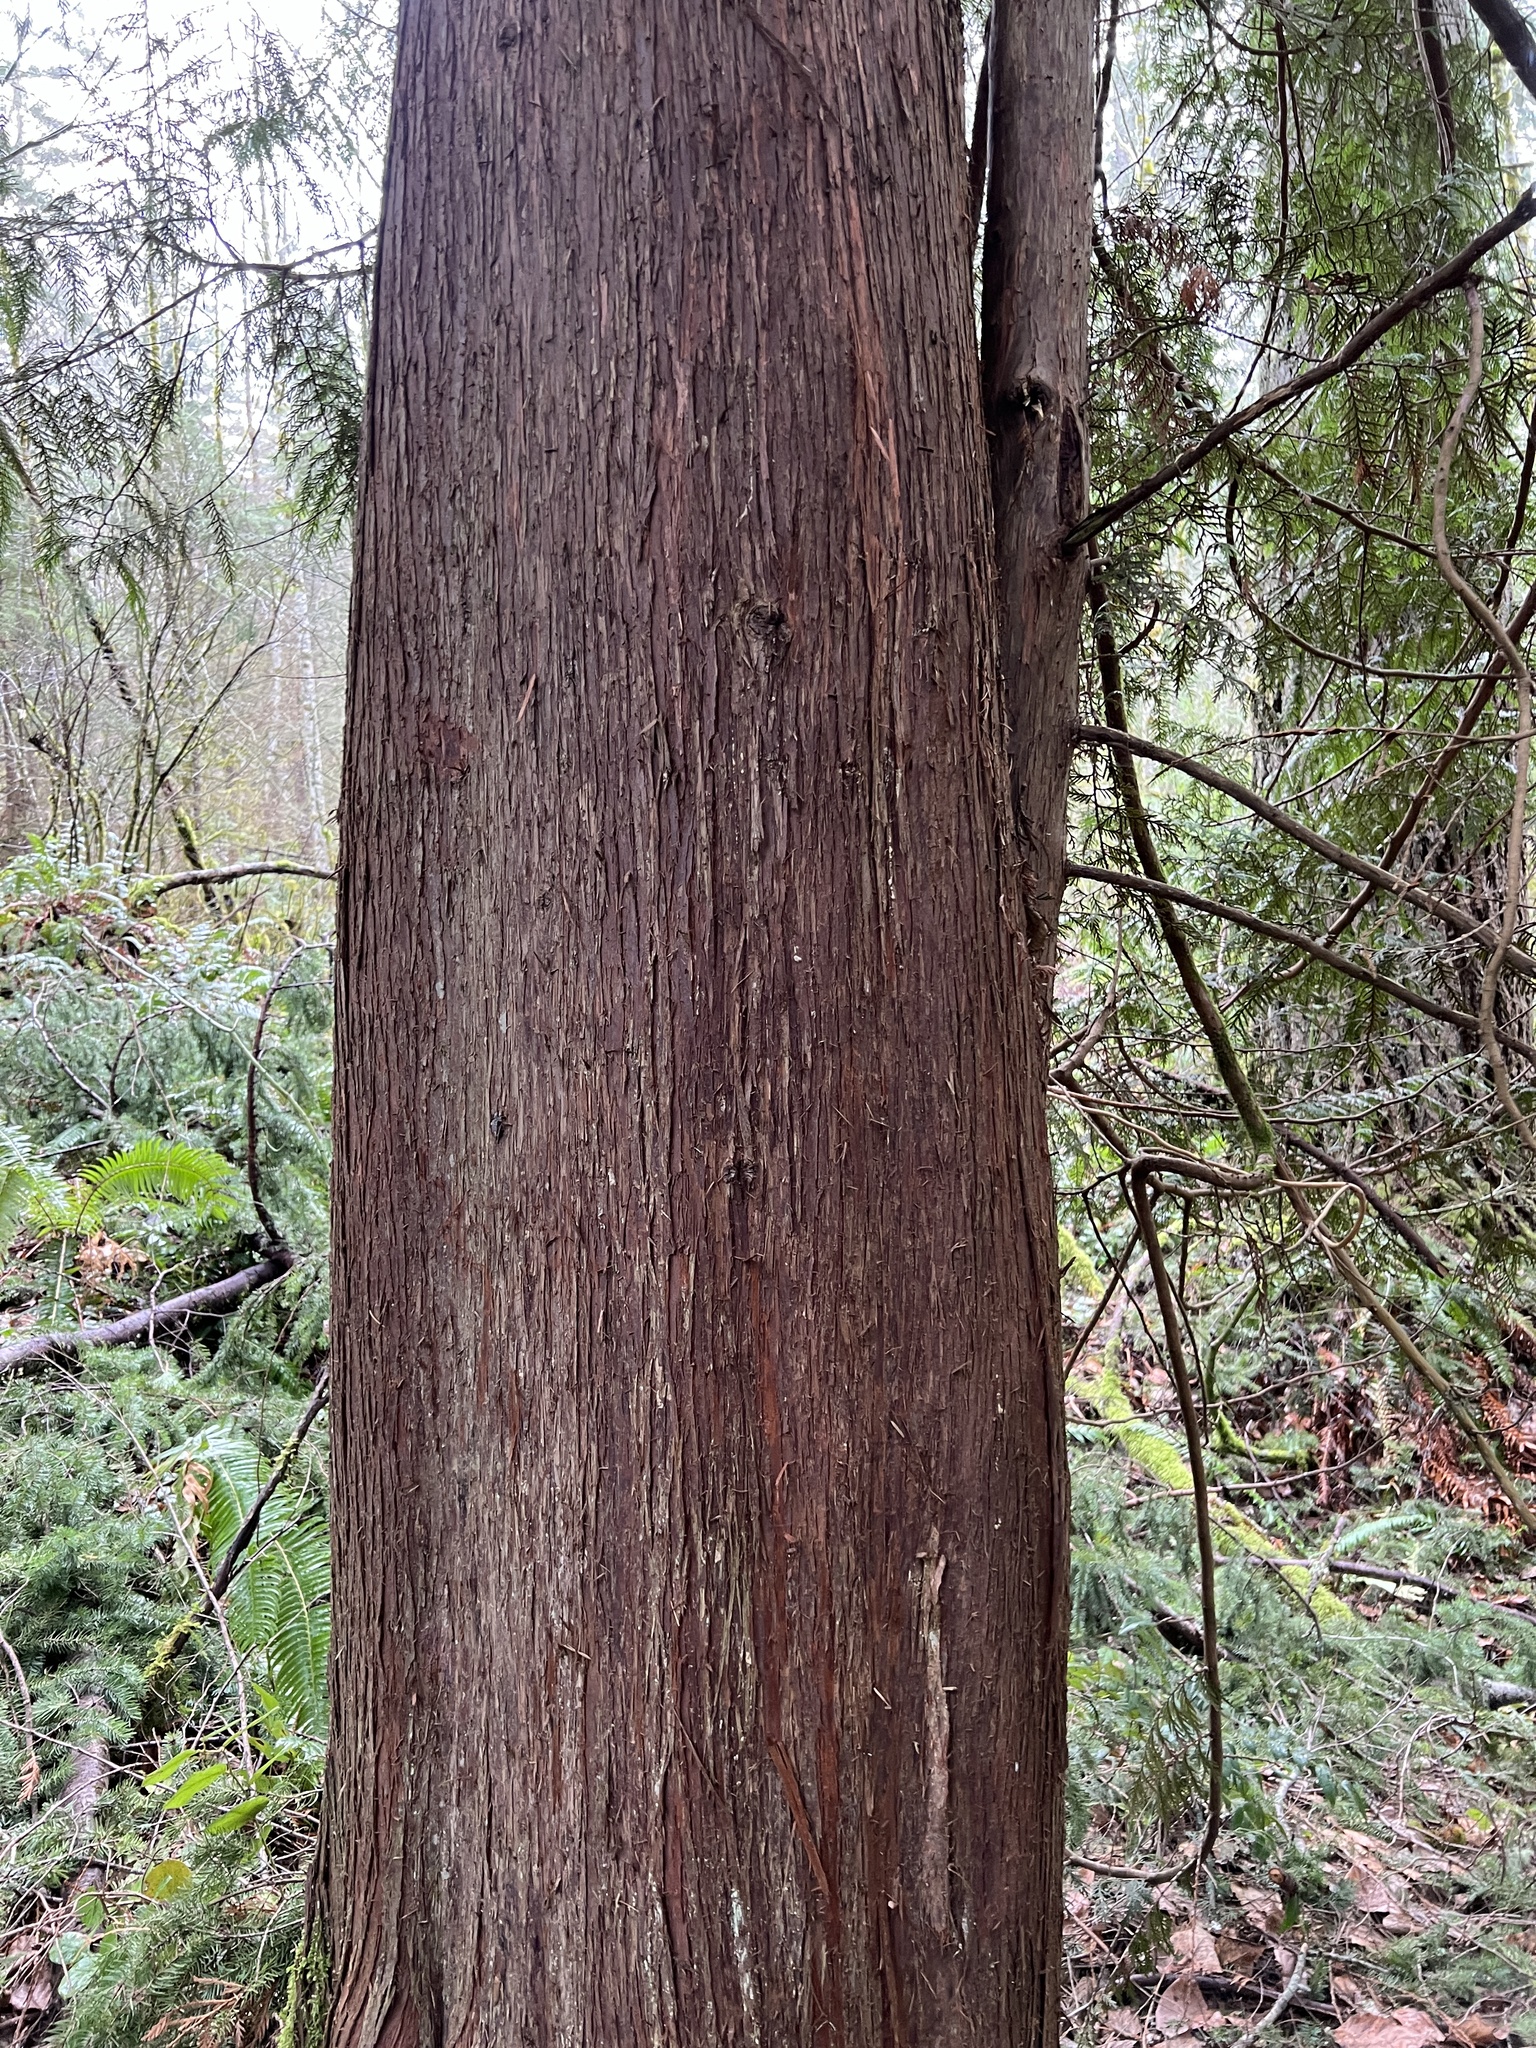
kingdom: Plantae
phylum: Tracheophyta
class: Pinopsida
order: Pinales
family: Cupressaceae
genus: Thuja
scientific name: Thuja plicata
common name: Western red-cedar
